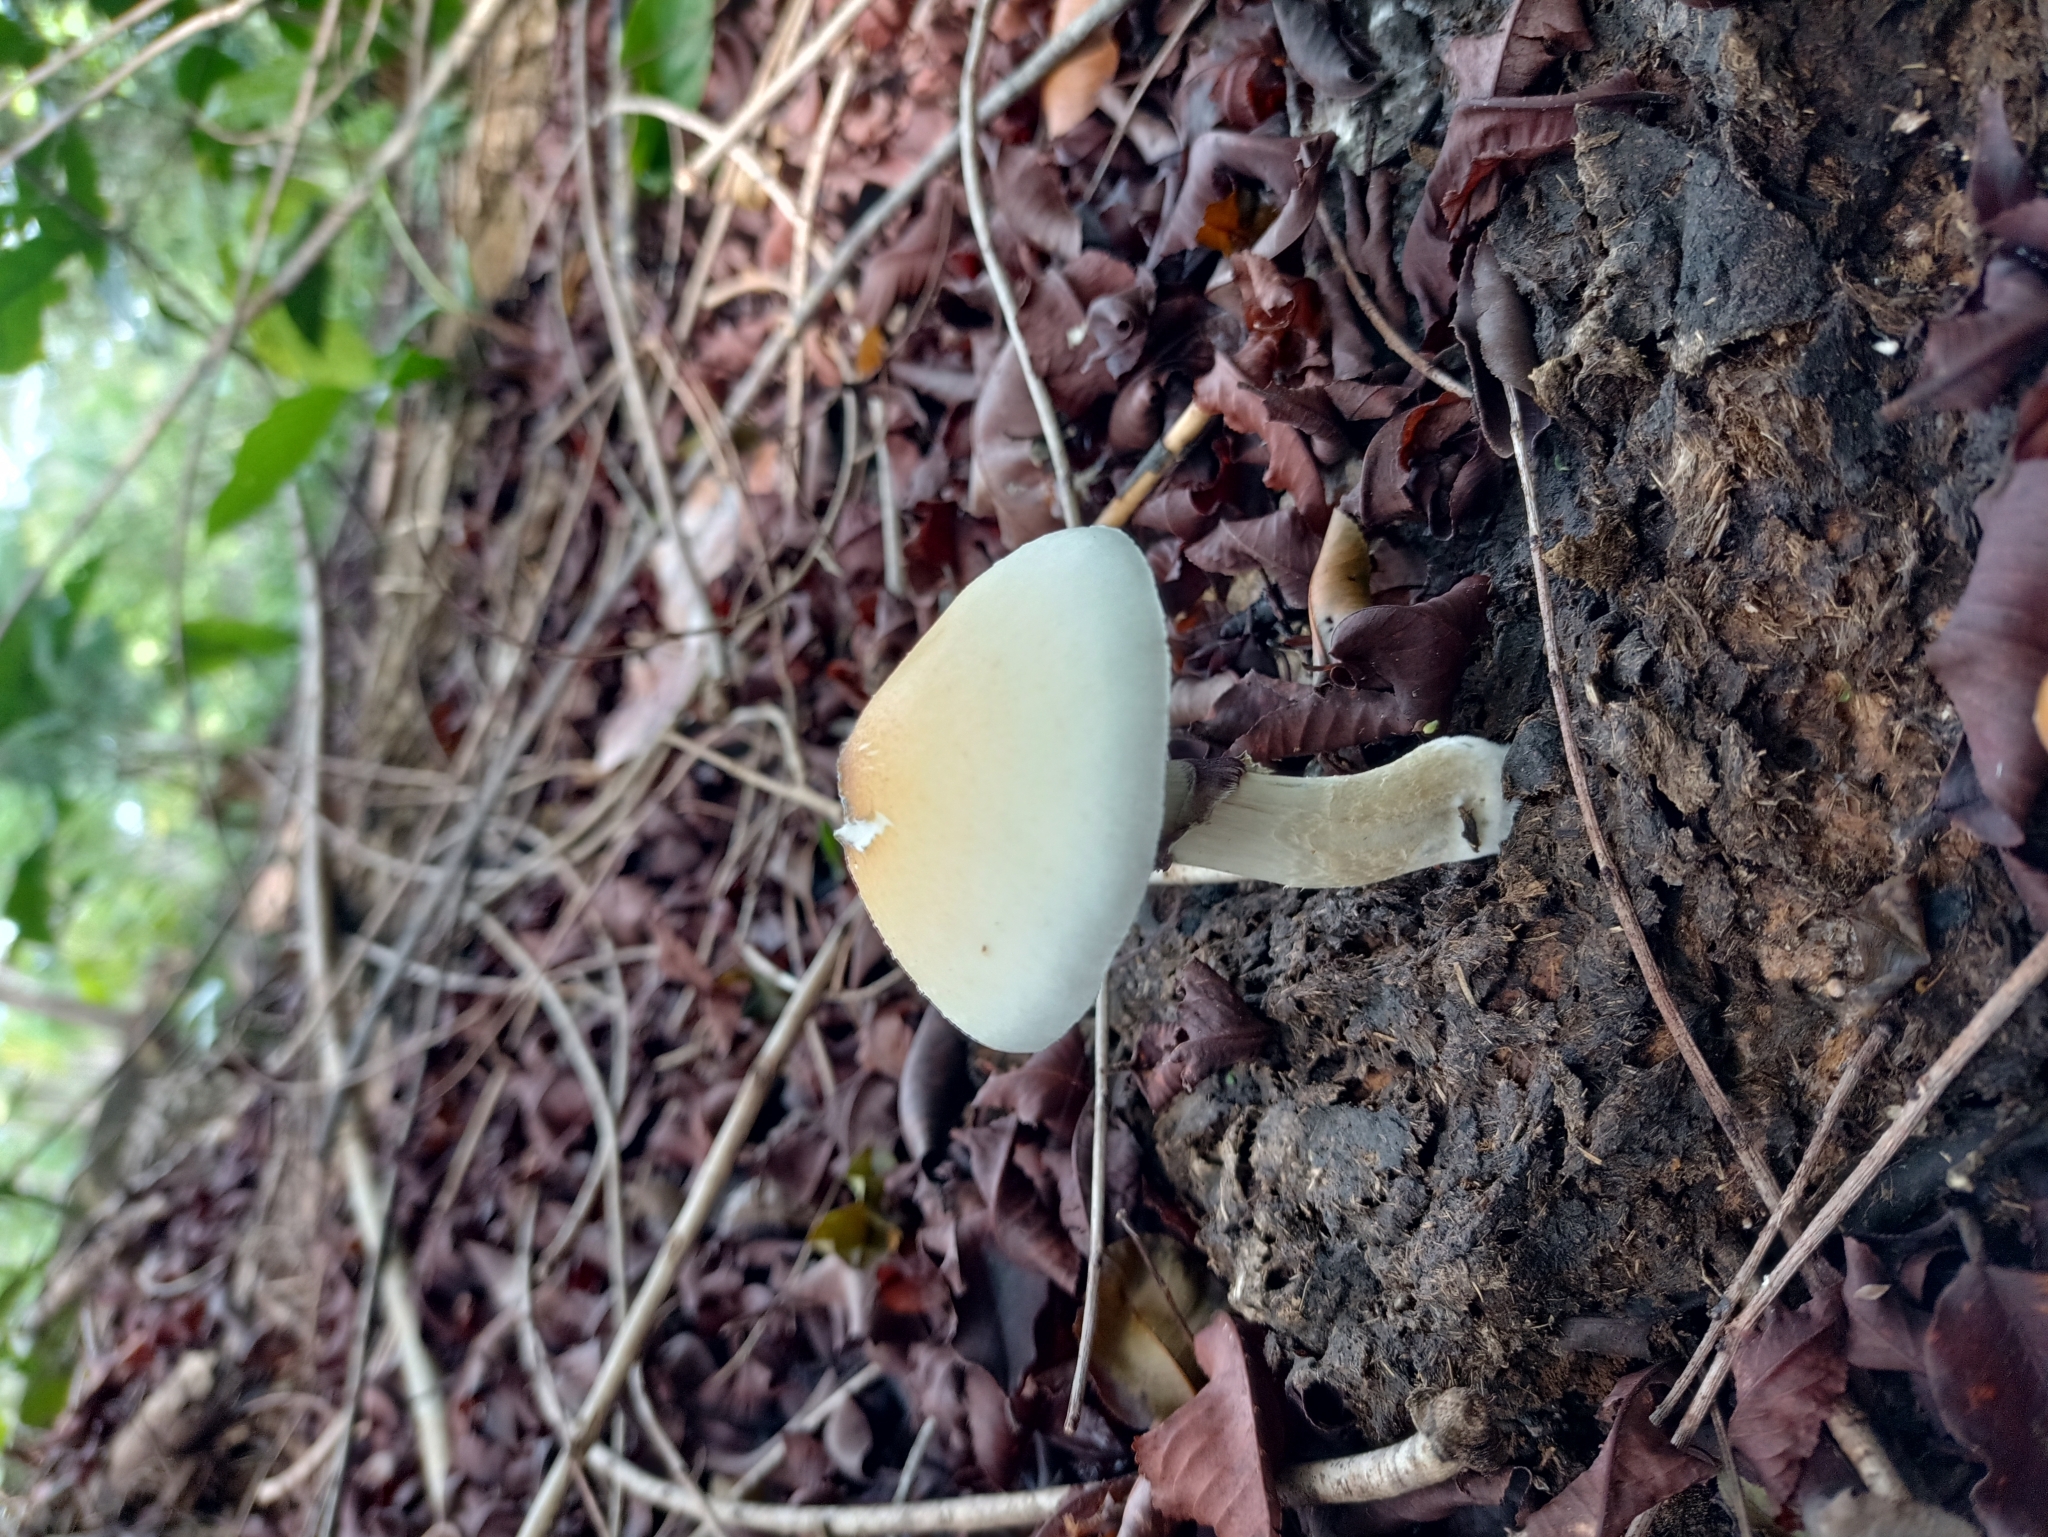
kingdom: Fungi
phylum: Basidiomycota
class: Agaricomycetes
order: Agaricales
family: Hymenogastraceae
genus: Psilocybe
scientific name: Psilocybe cubensis
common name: Golden brownie
